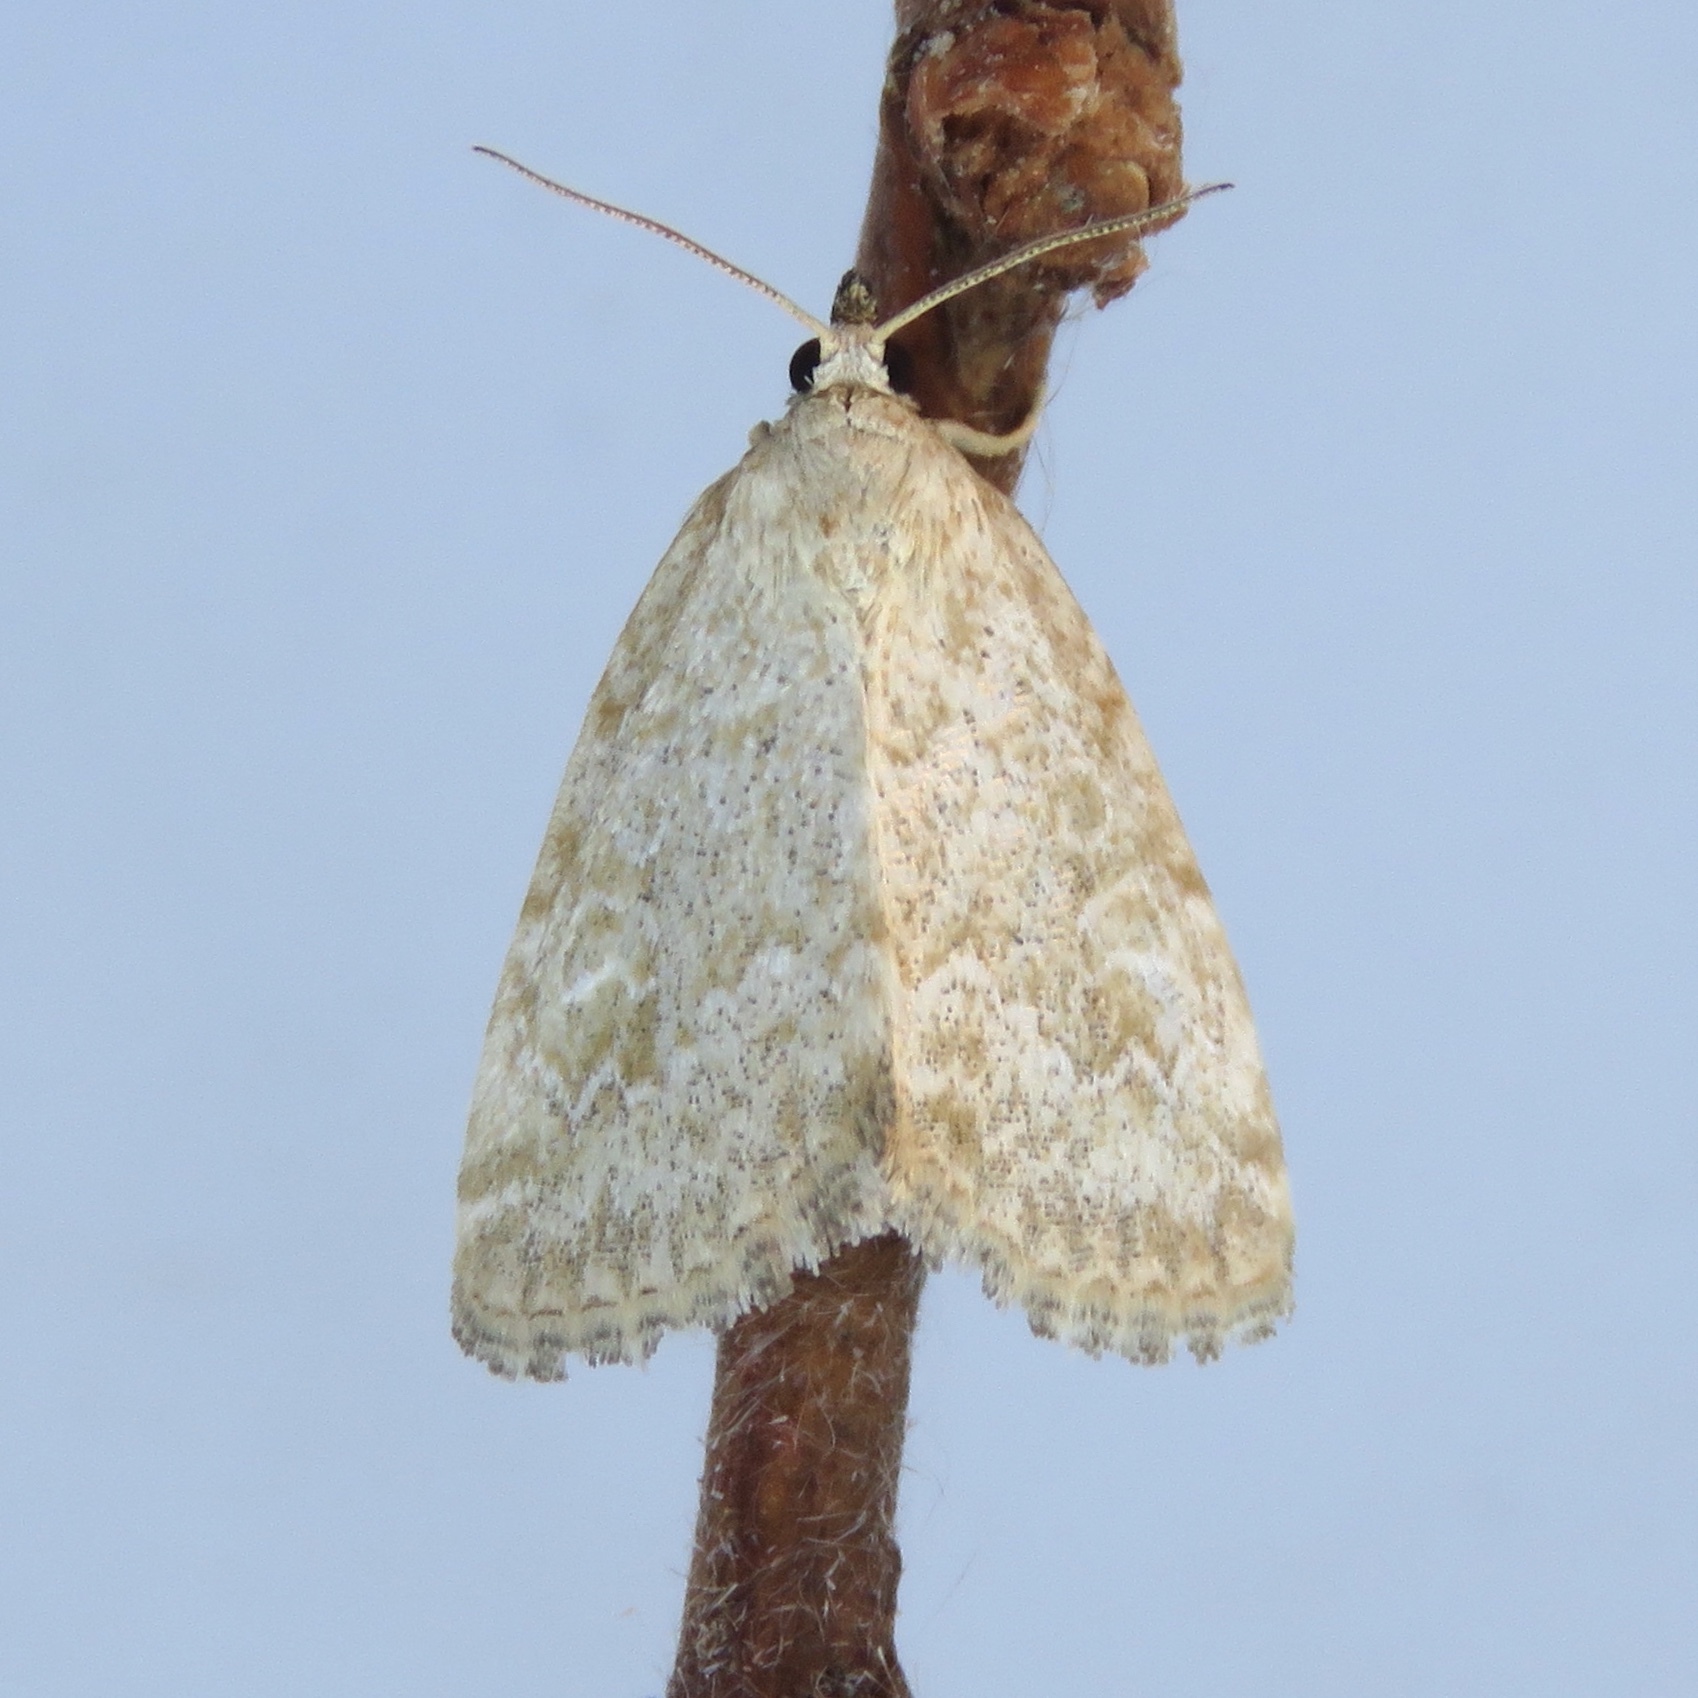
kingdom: Animalia
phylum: Arthropoda
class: Insecta
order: Lepidoptera
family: Noctuidae
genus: Protodeltote
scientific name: Protodeltote albidula
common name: Pale glyph
